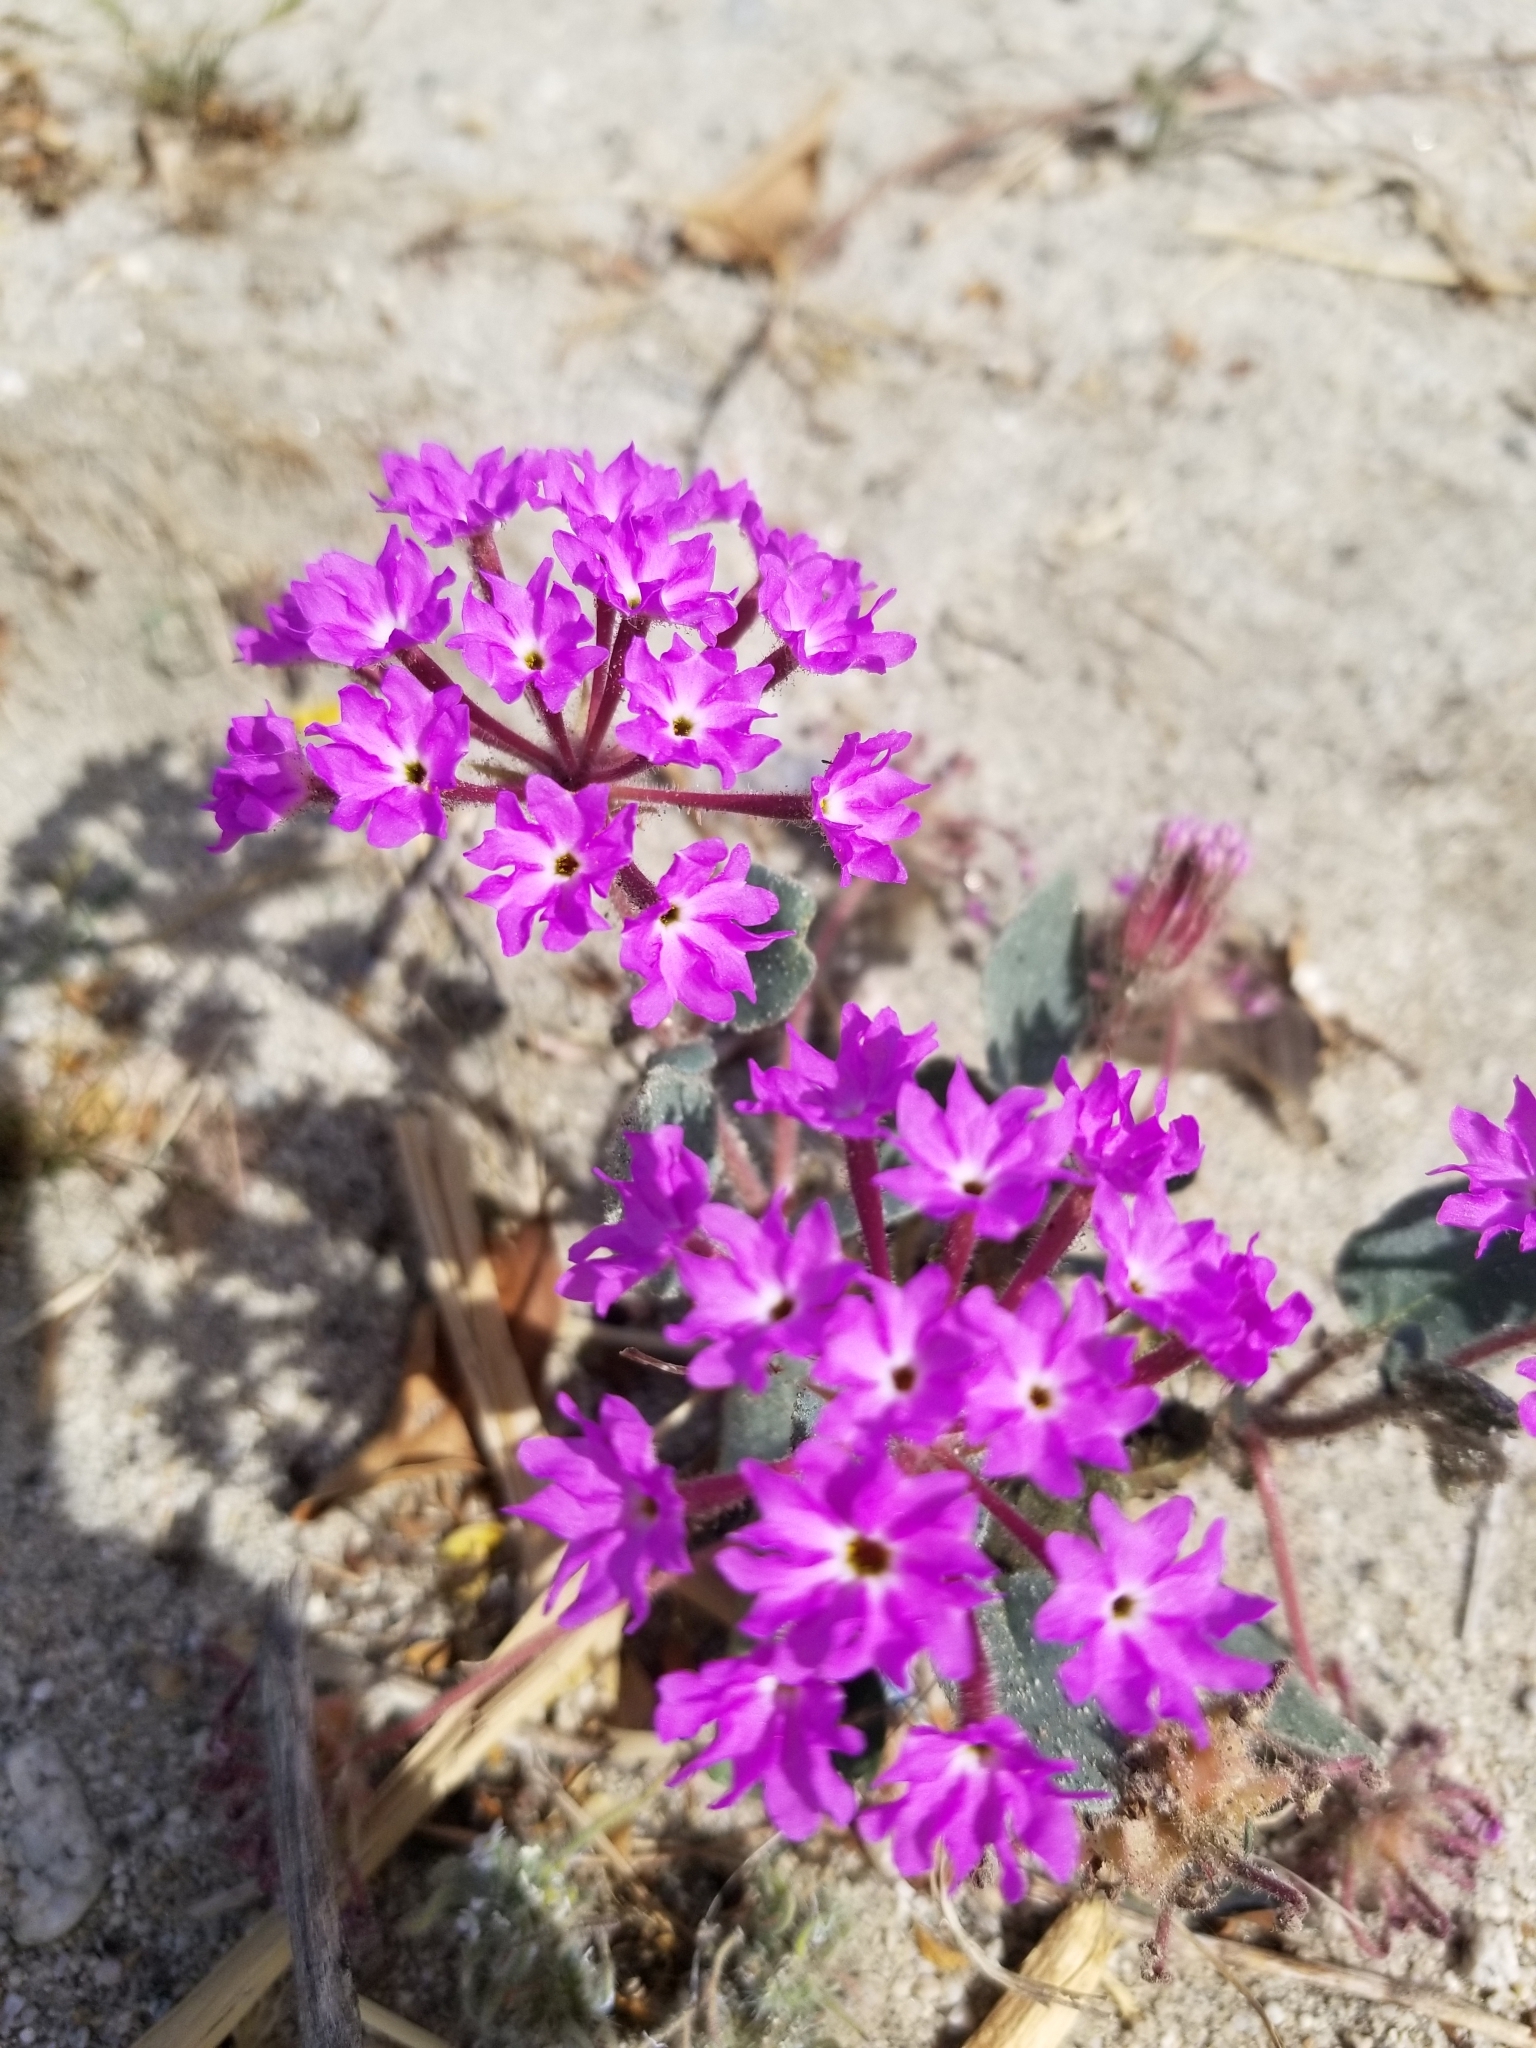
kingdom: Plantae
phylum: Tracheophyta
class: Magnoliopsida
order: Caryophyllales
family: Nyctaginaceae
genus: Abronia
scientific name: Abronia villosa
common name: Desert sand-verbena
